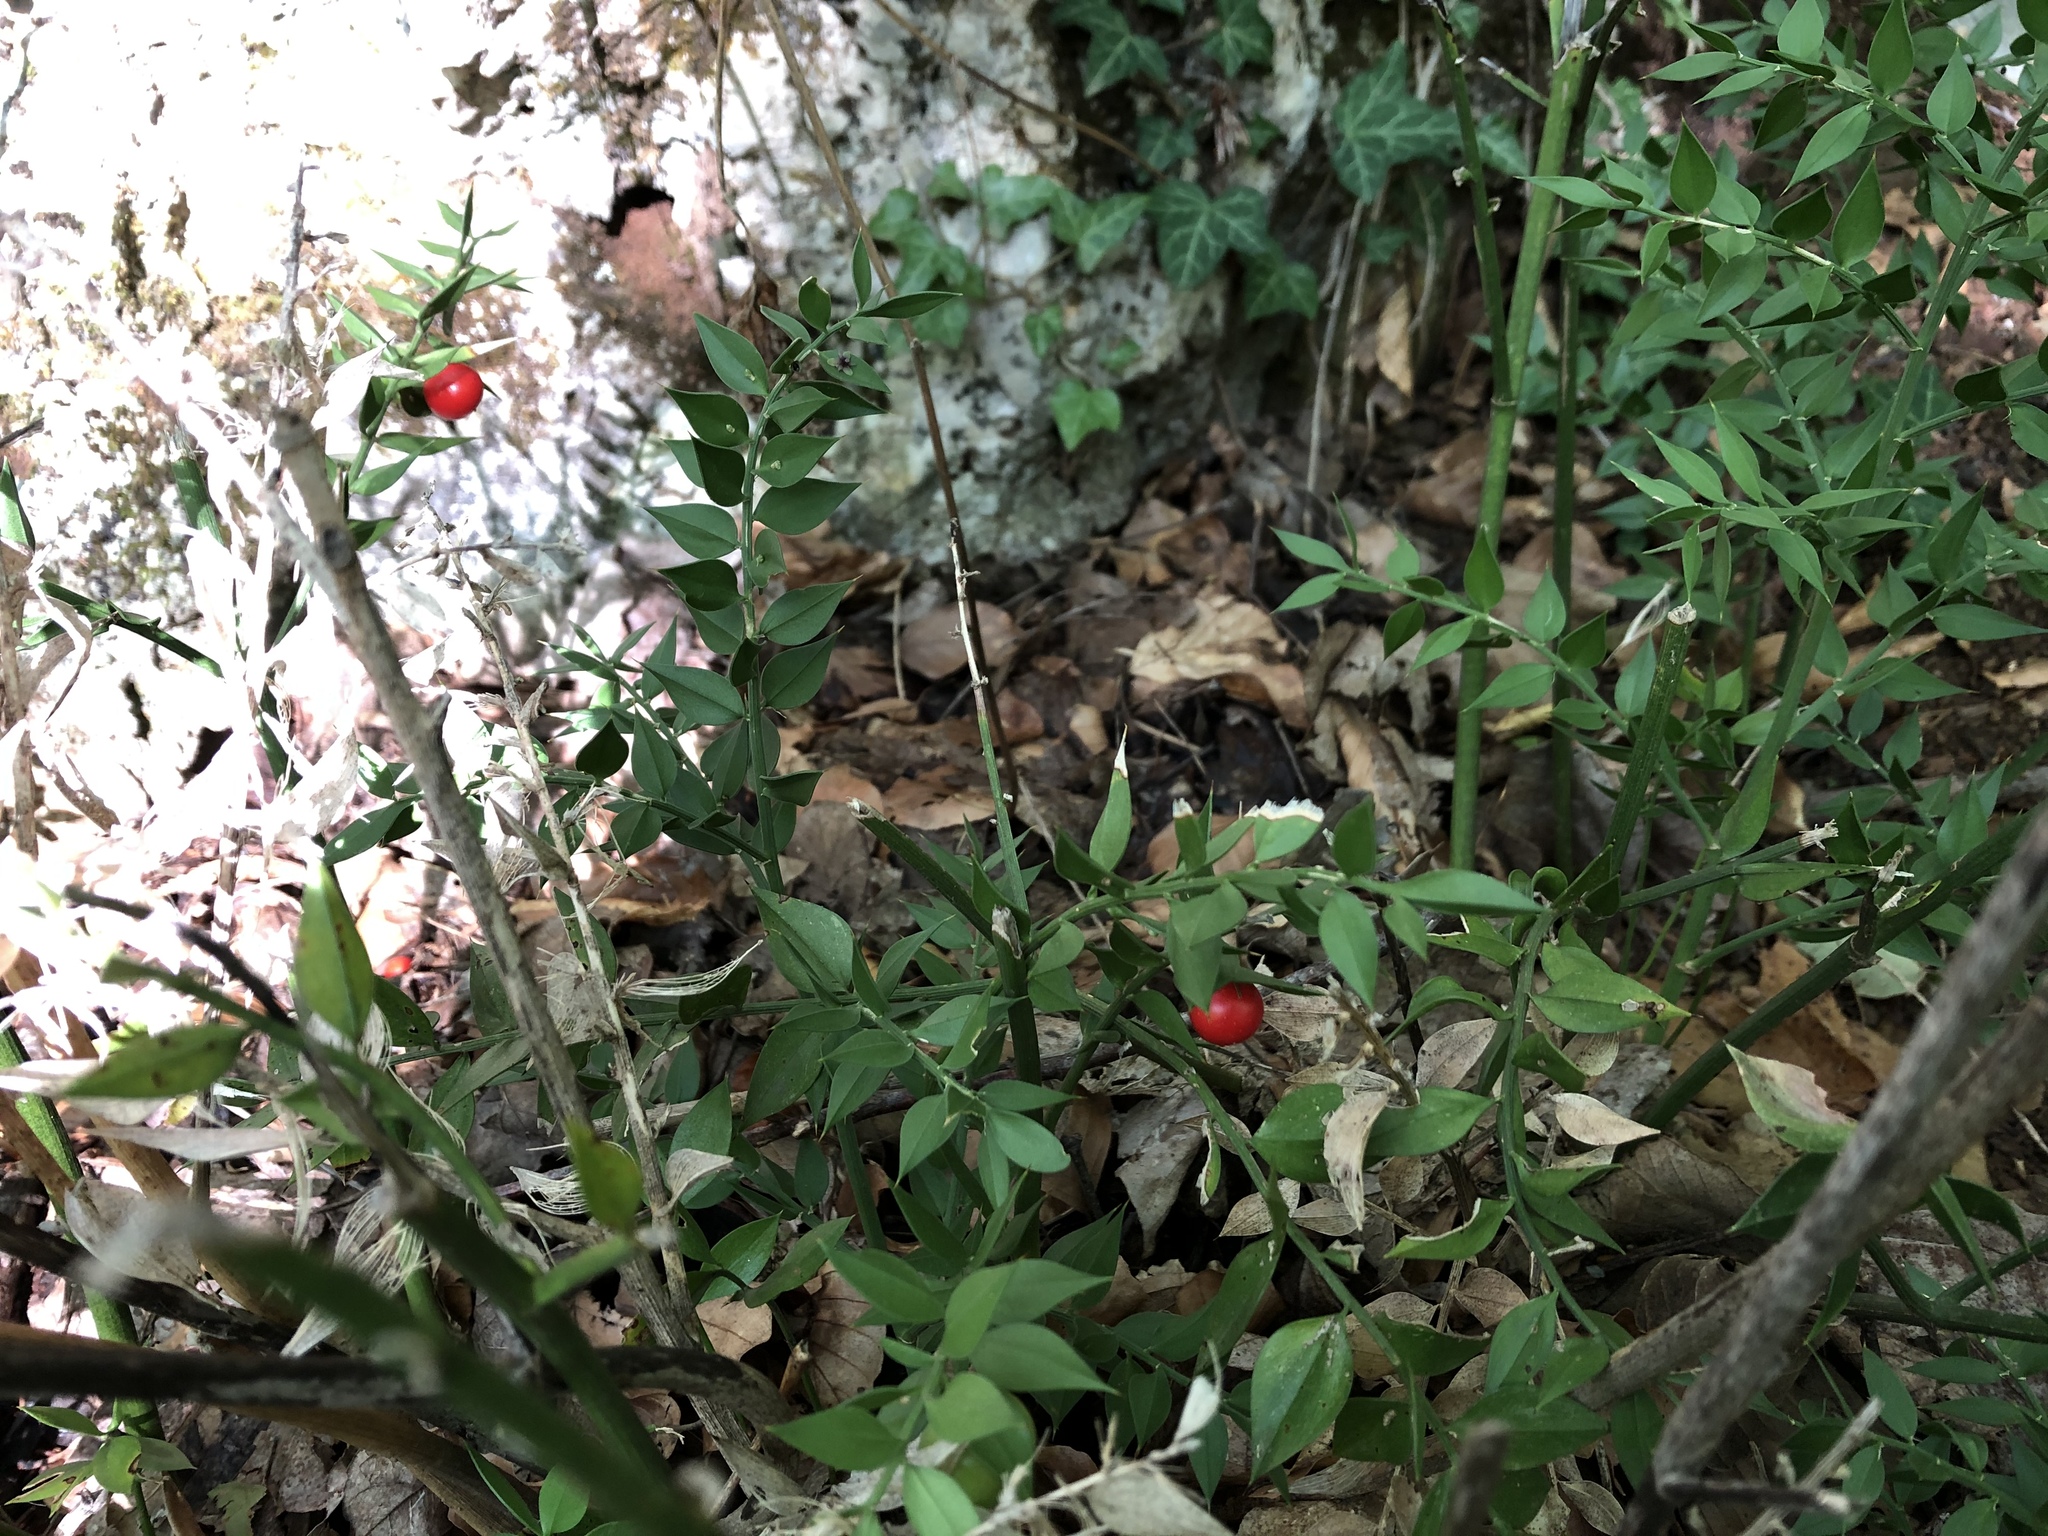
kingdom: Plantae
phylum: Tracheophyta
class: Liliopsida
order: Asparagales
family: Asparagaceae
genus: Ruscus
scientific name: Ruscus aculeatus
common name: Butcher's-broom
